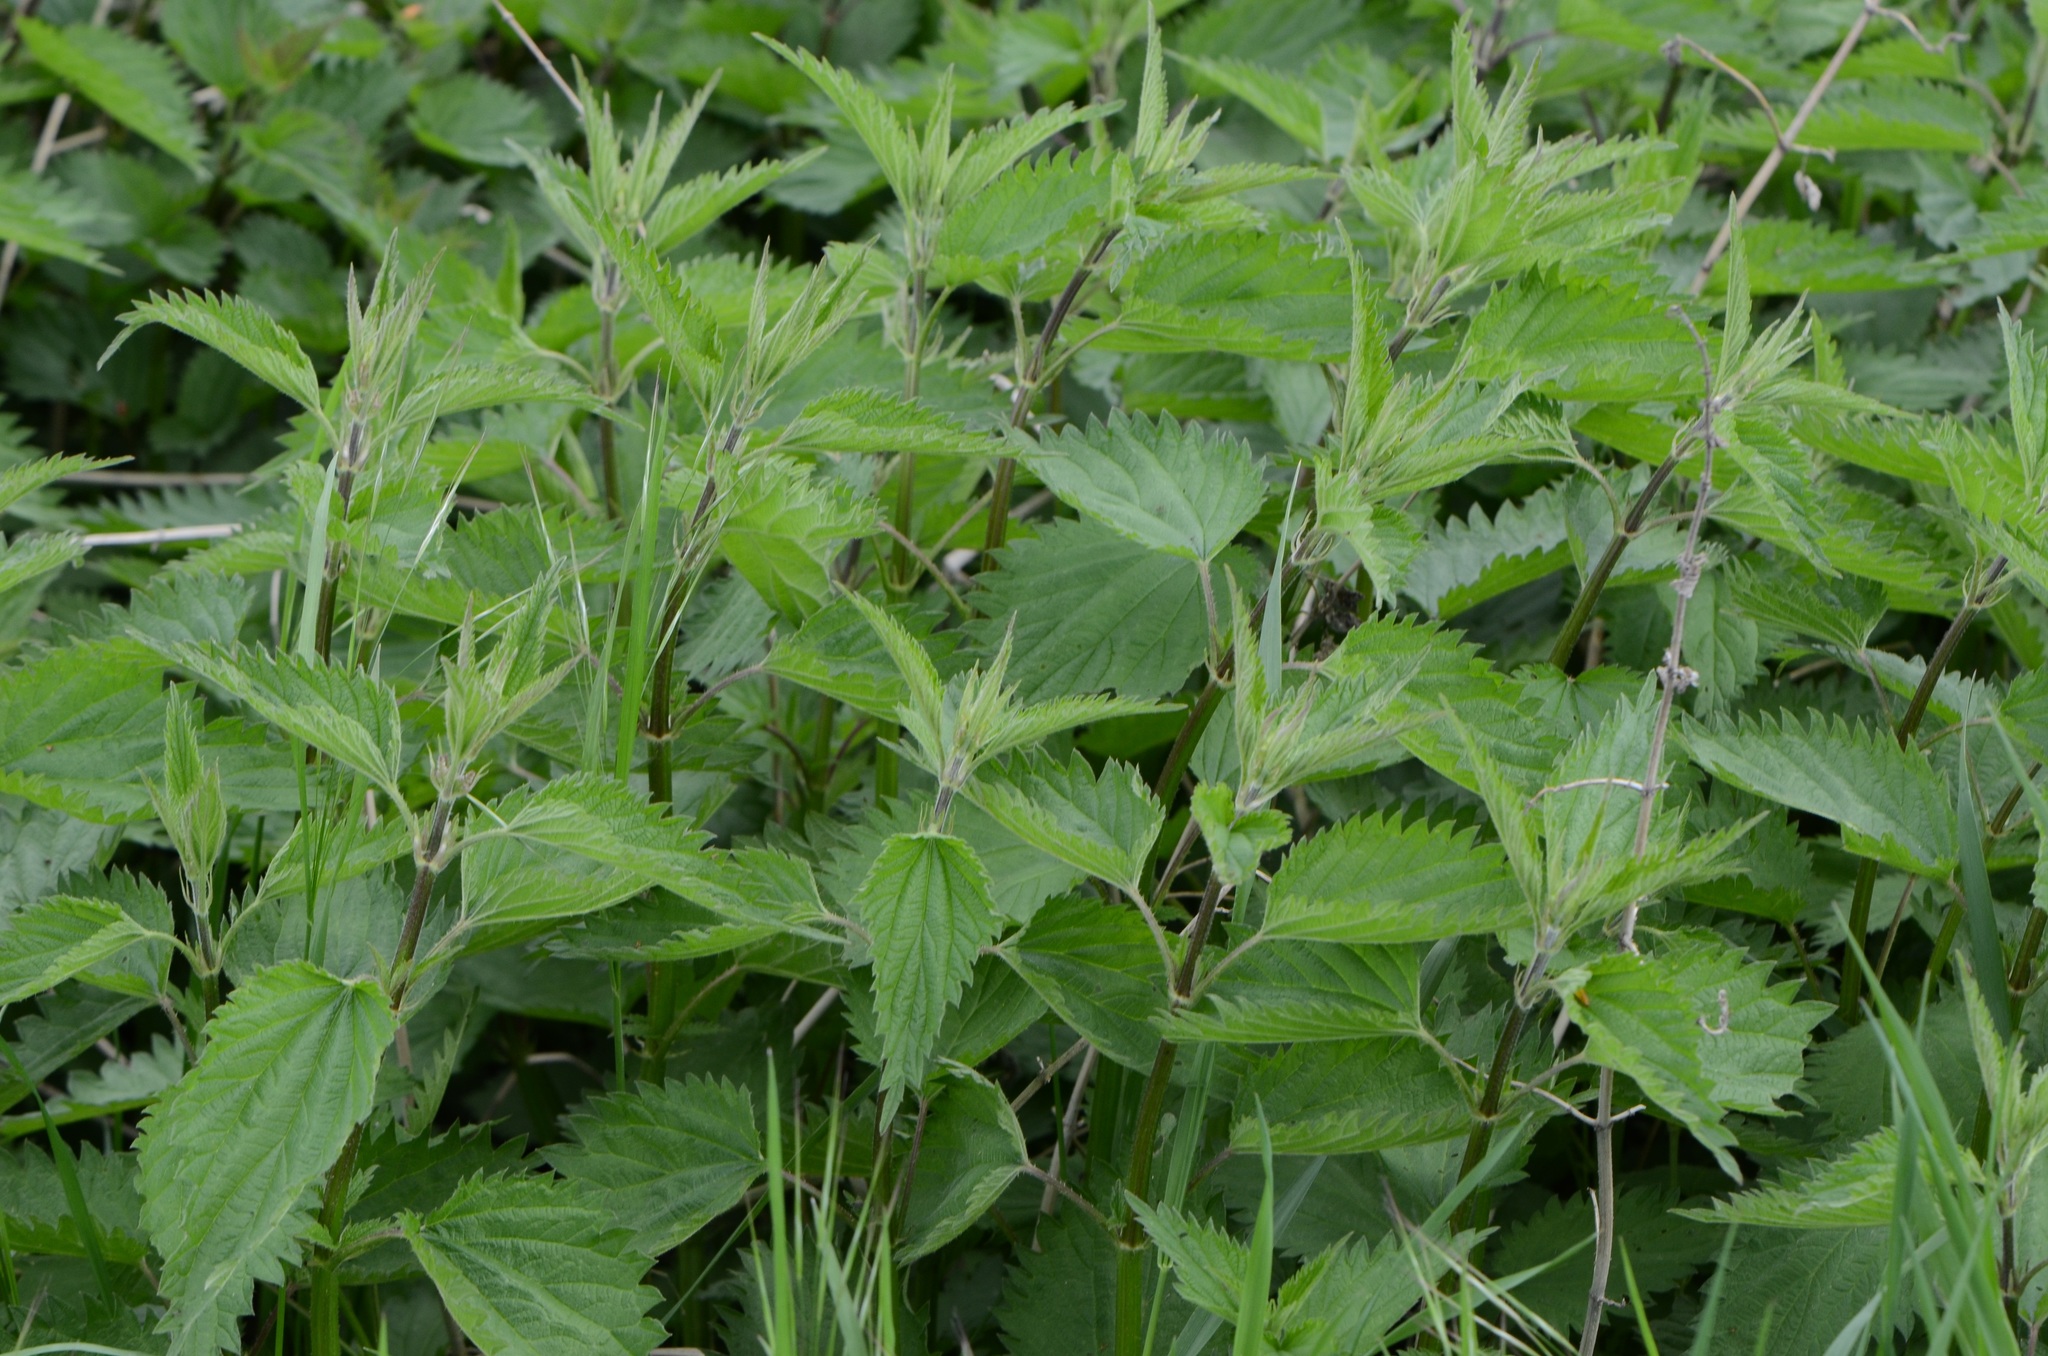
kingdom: Plantae
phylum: Tracheophyta
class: Magnoliopsida
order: Rosales
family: Urticaceae
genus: Urtica
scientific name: Urtica dioica
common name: Common nettle
